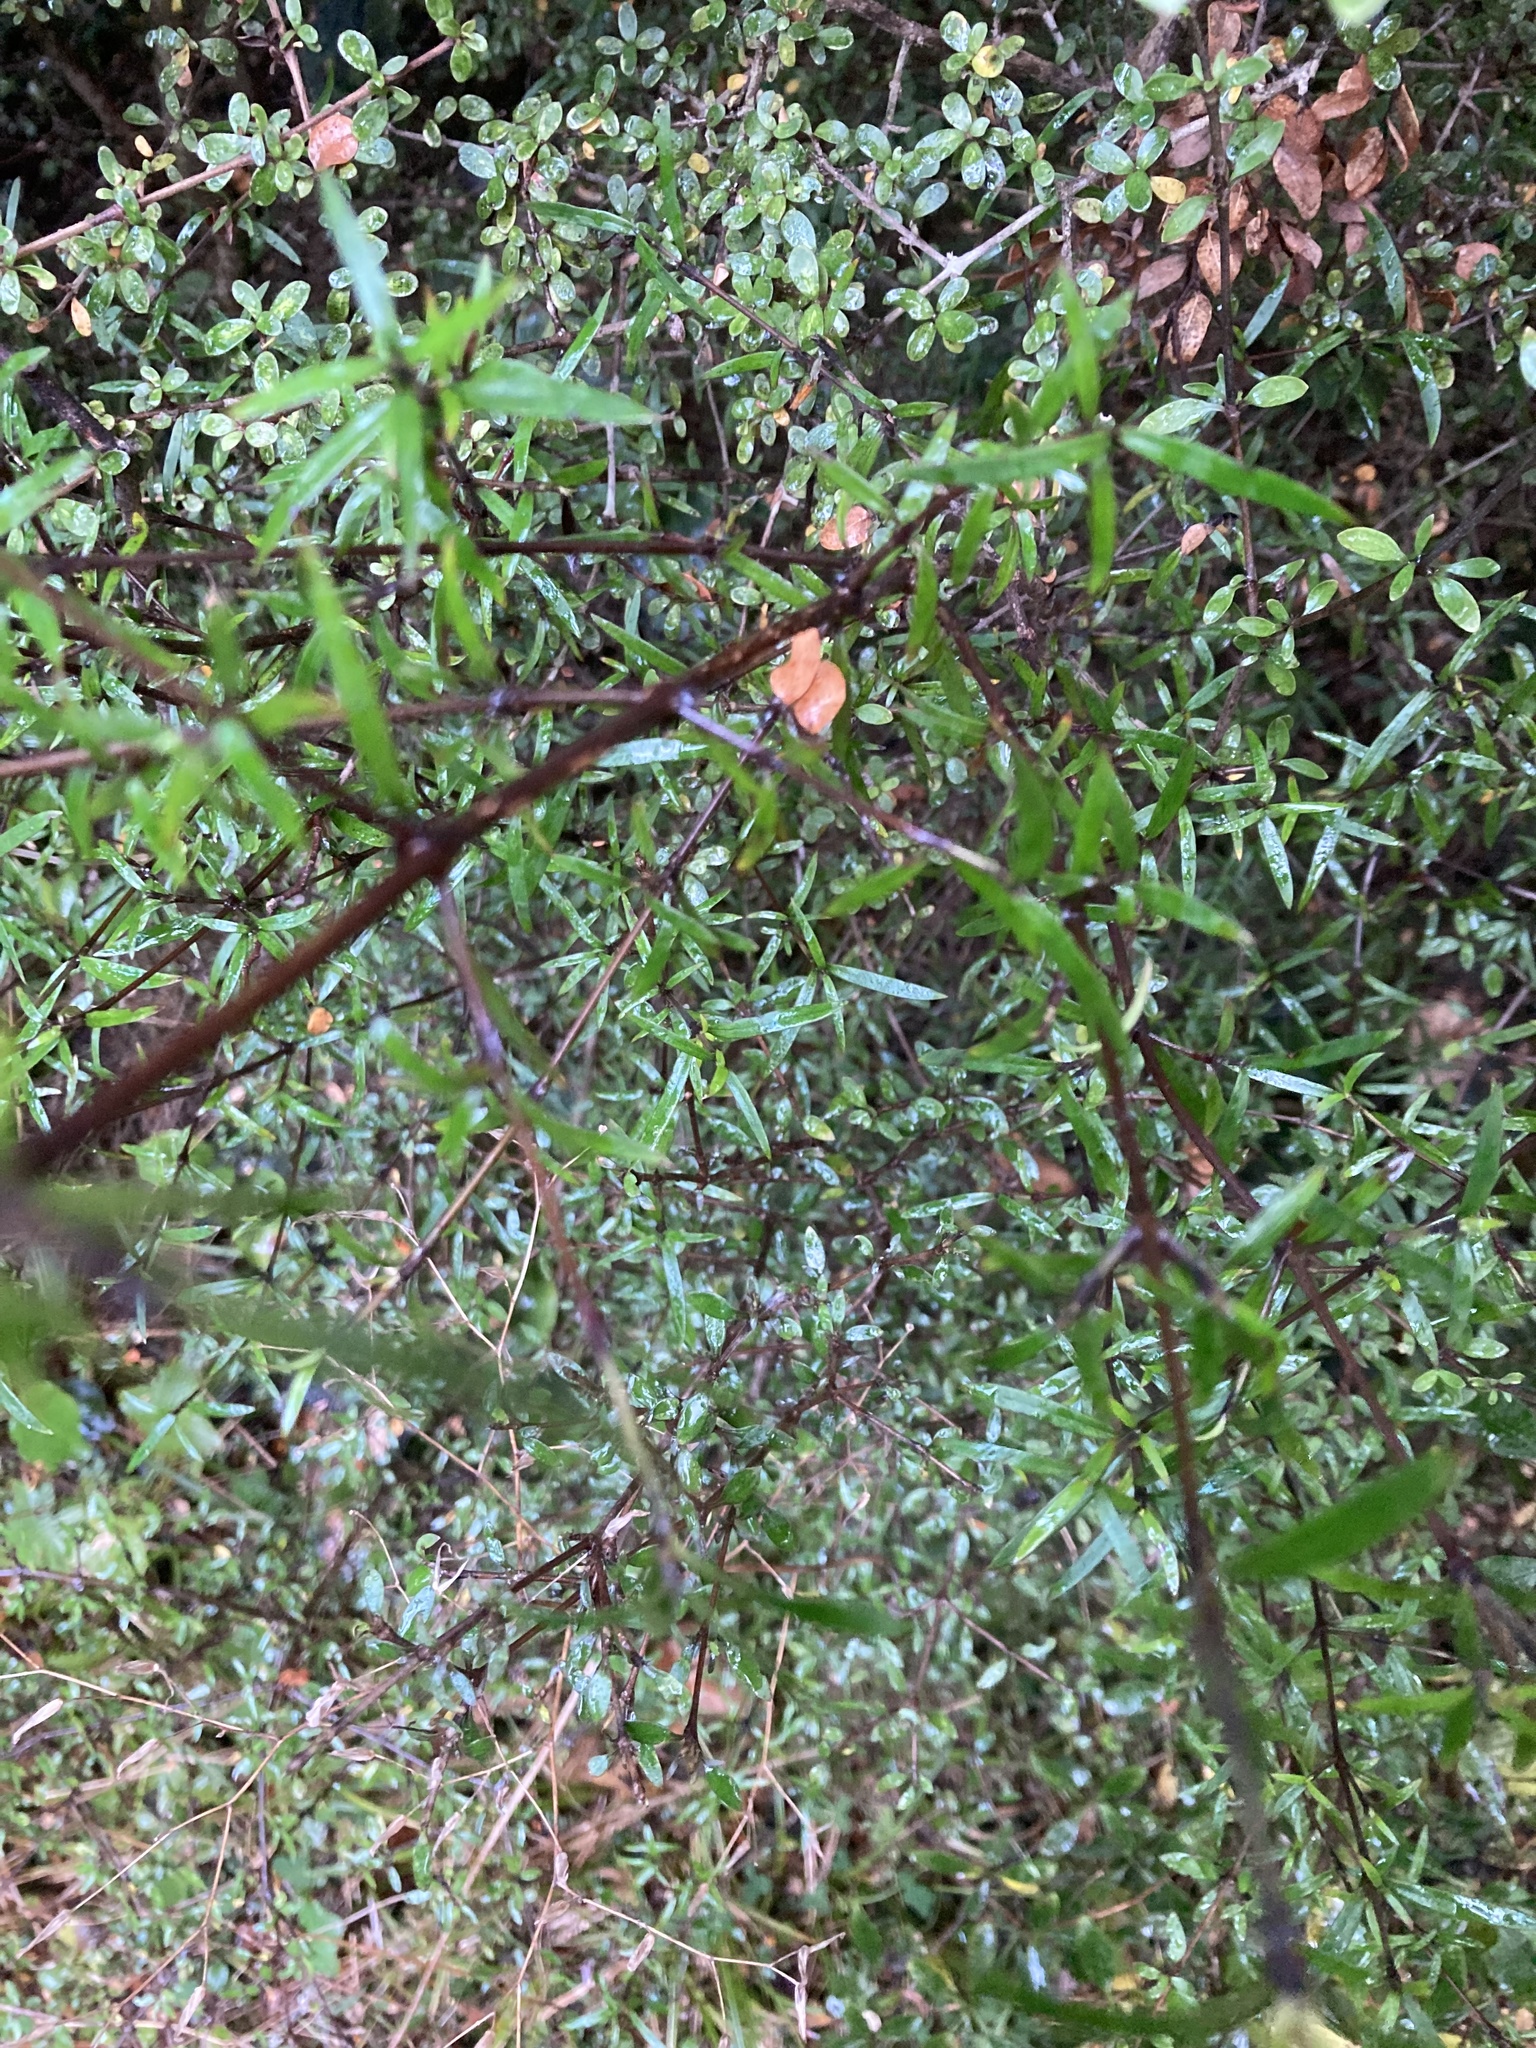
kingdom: Plantae
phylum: Tracheophyta
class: Magnoliopsida
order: Gentianales
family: Rubiaceae
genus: Coprosma
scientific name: Coprosma linariifolia
